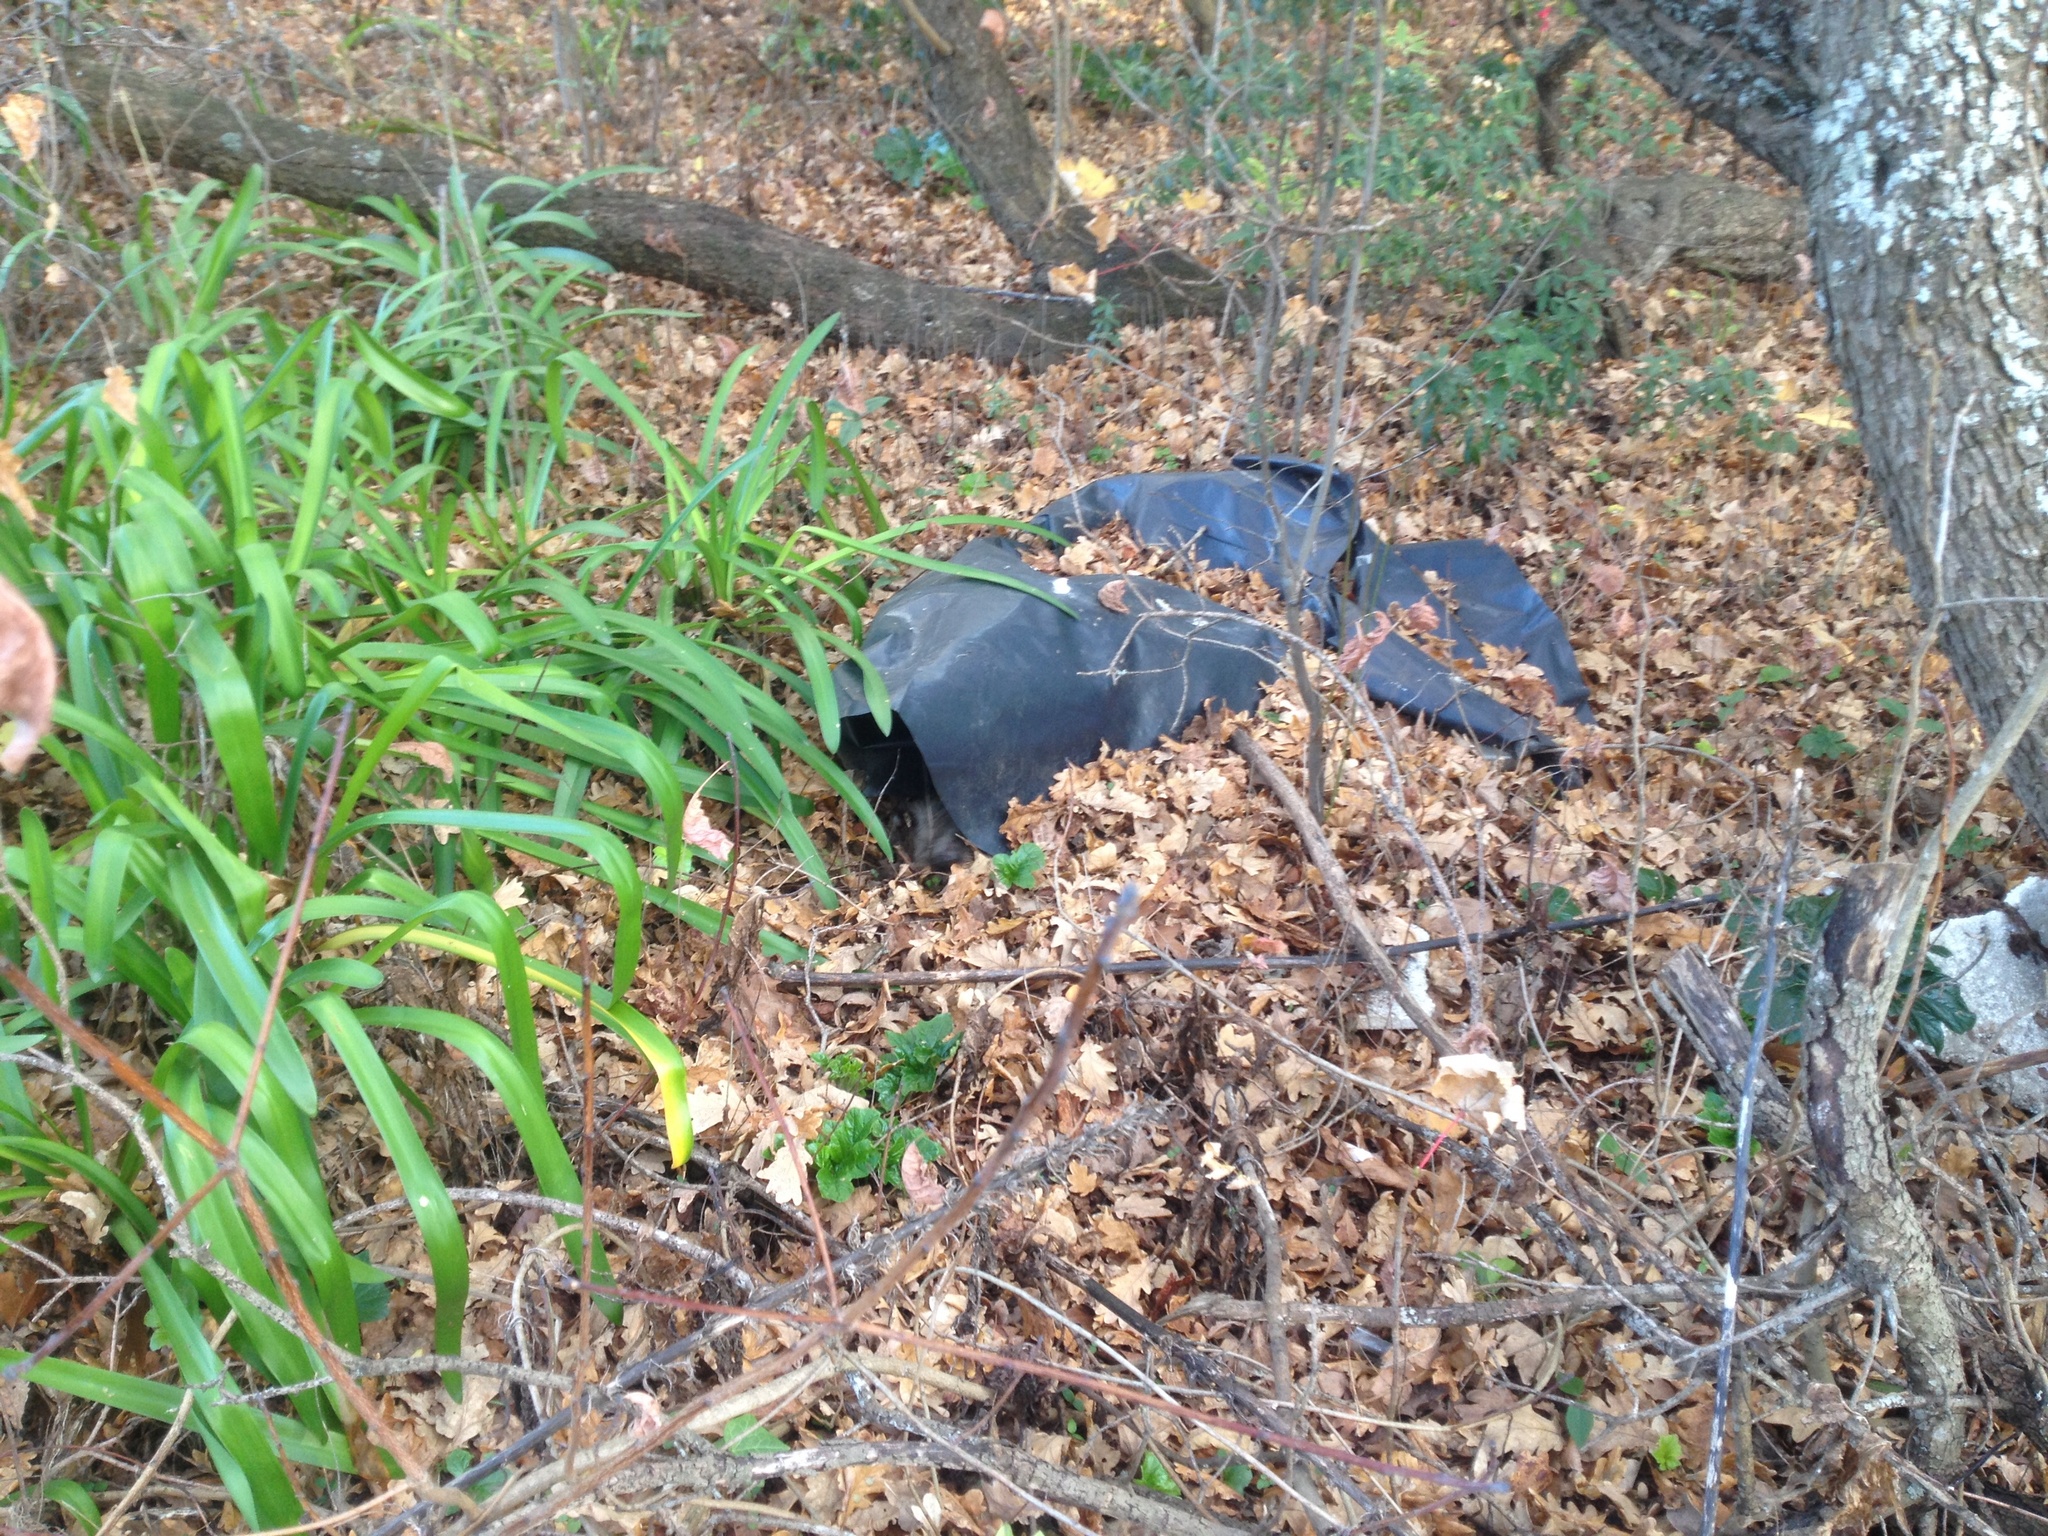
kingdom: Animalia
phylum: Chordata
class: Mammalia
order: Erinaceomorpha
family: Erinaceidae
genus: Erinaceus
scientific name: Erinaceus europaeus
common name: West european hedgehog
